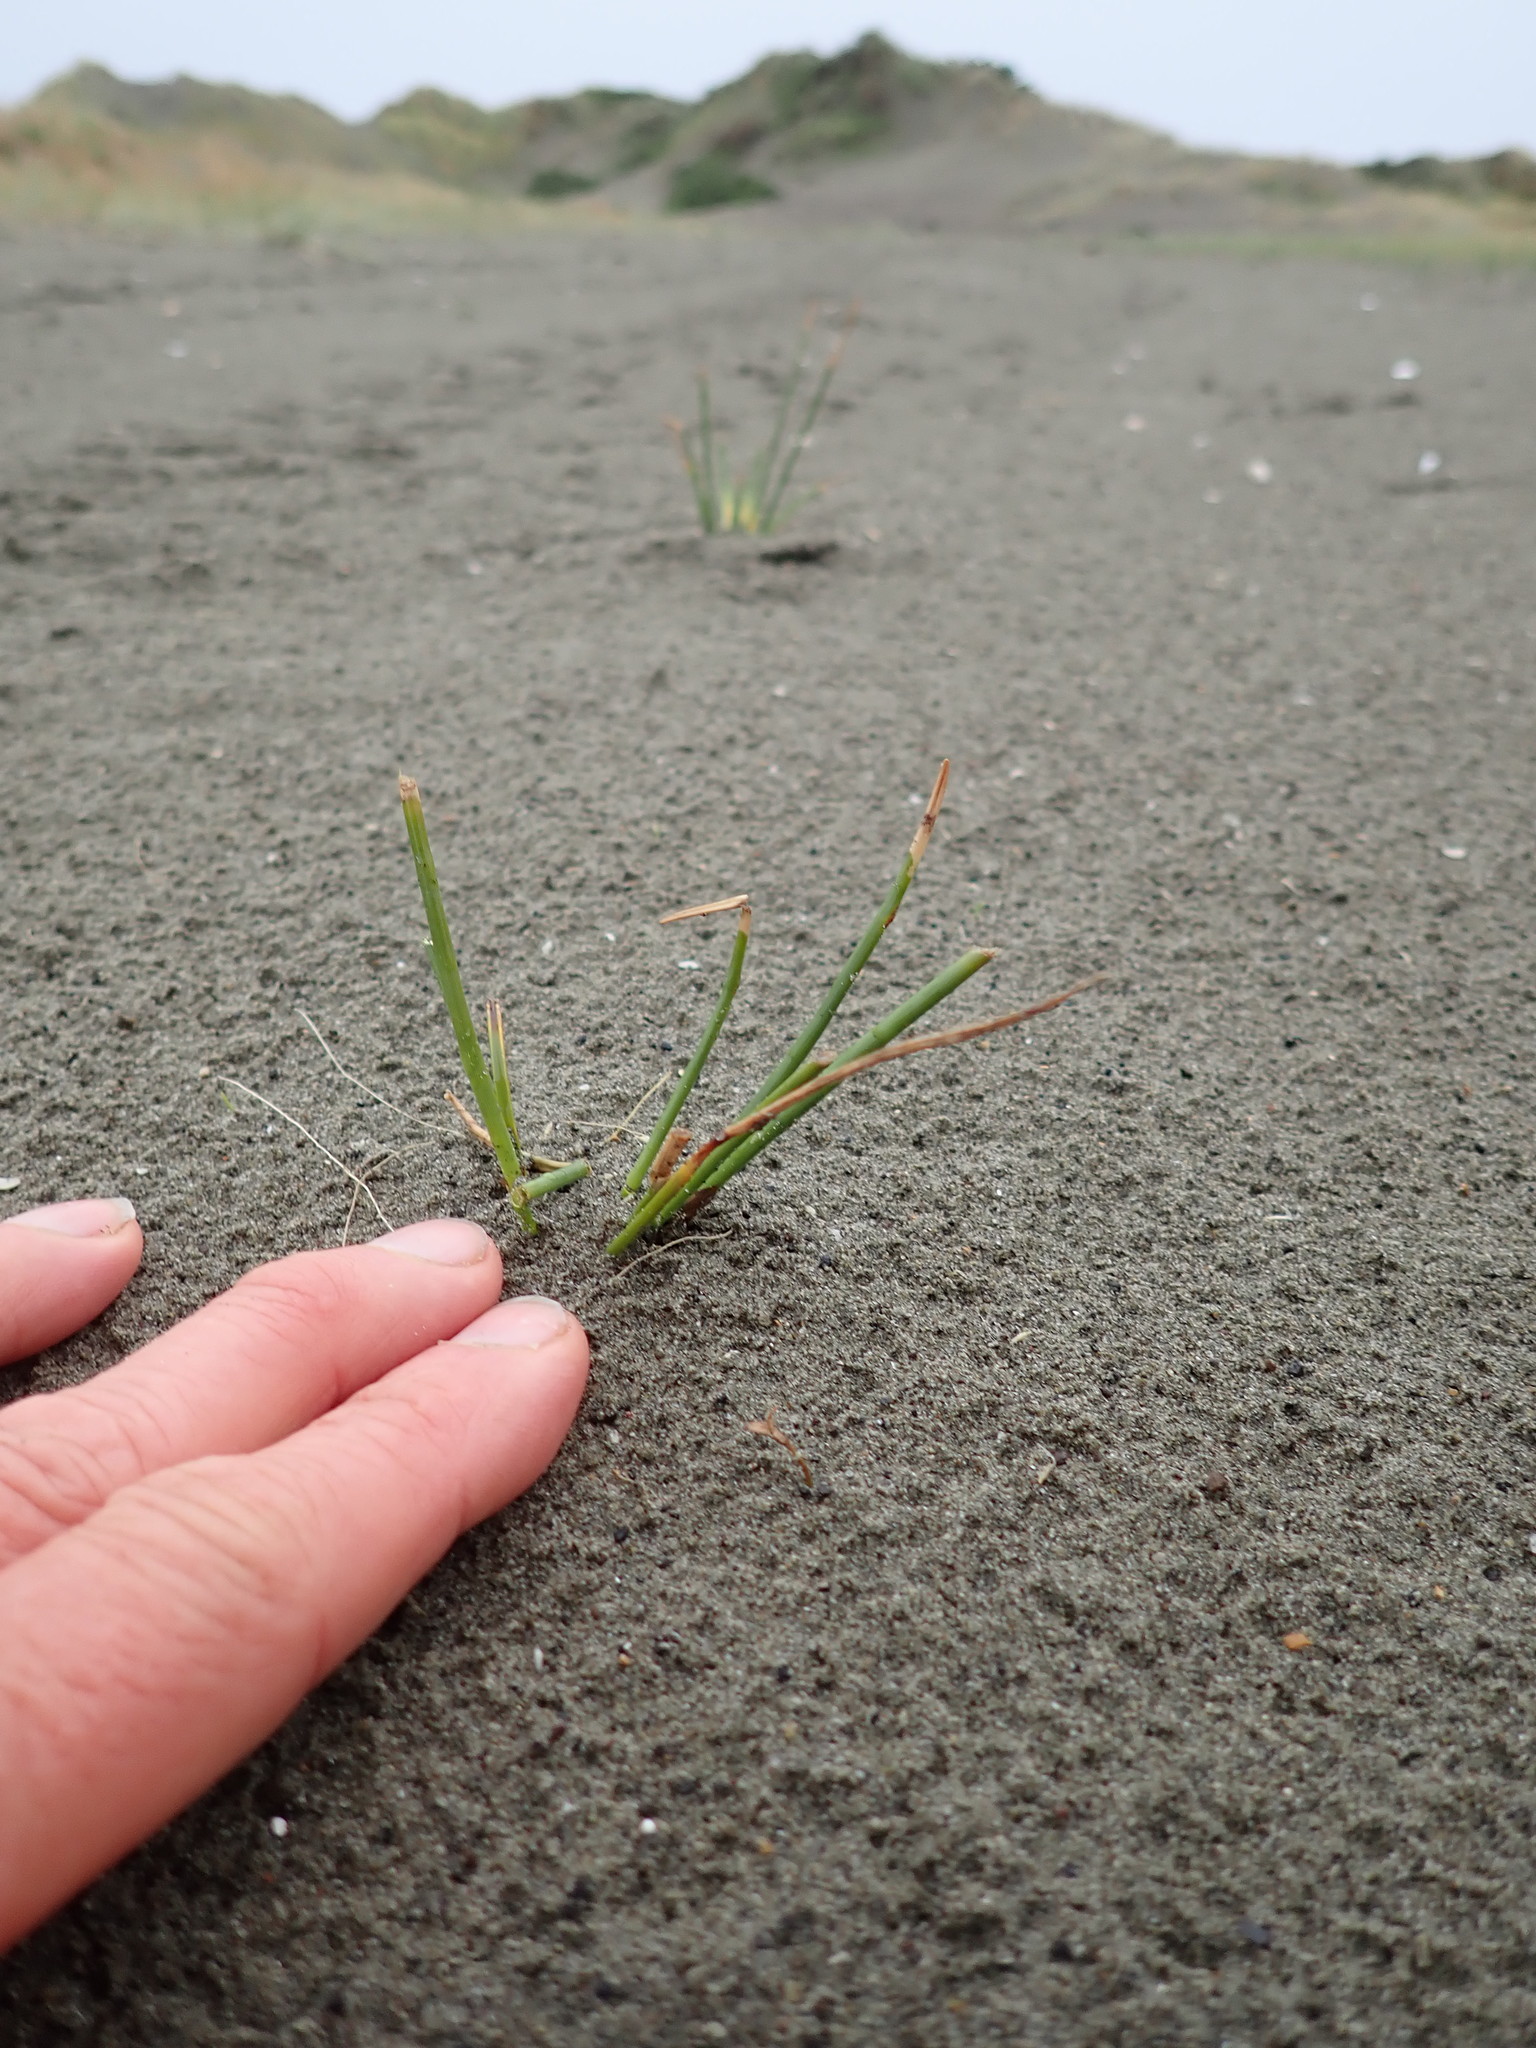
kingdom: Plantae
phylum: Tracheophyta
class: Liliopsida
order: Poales
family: Cyperaceae
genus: Ficinia
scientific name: Ficinia nodosa
